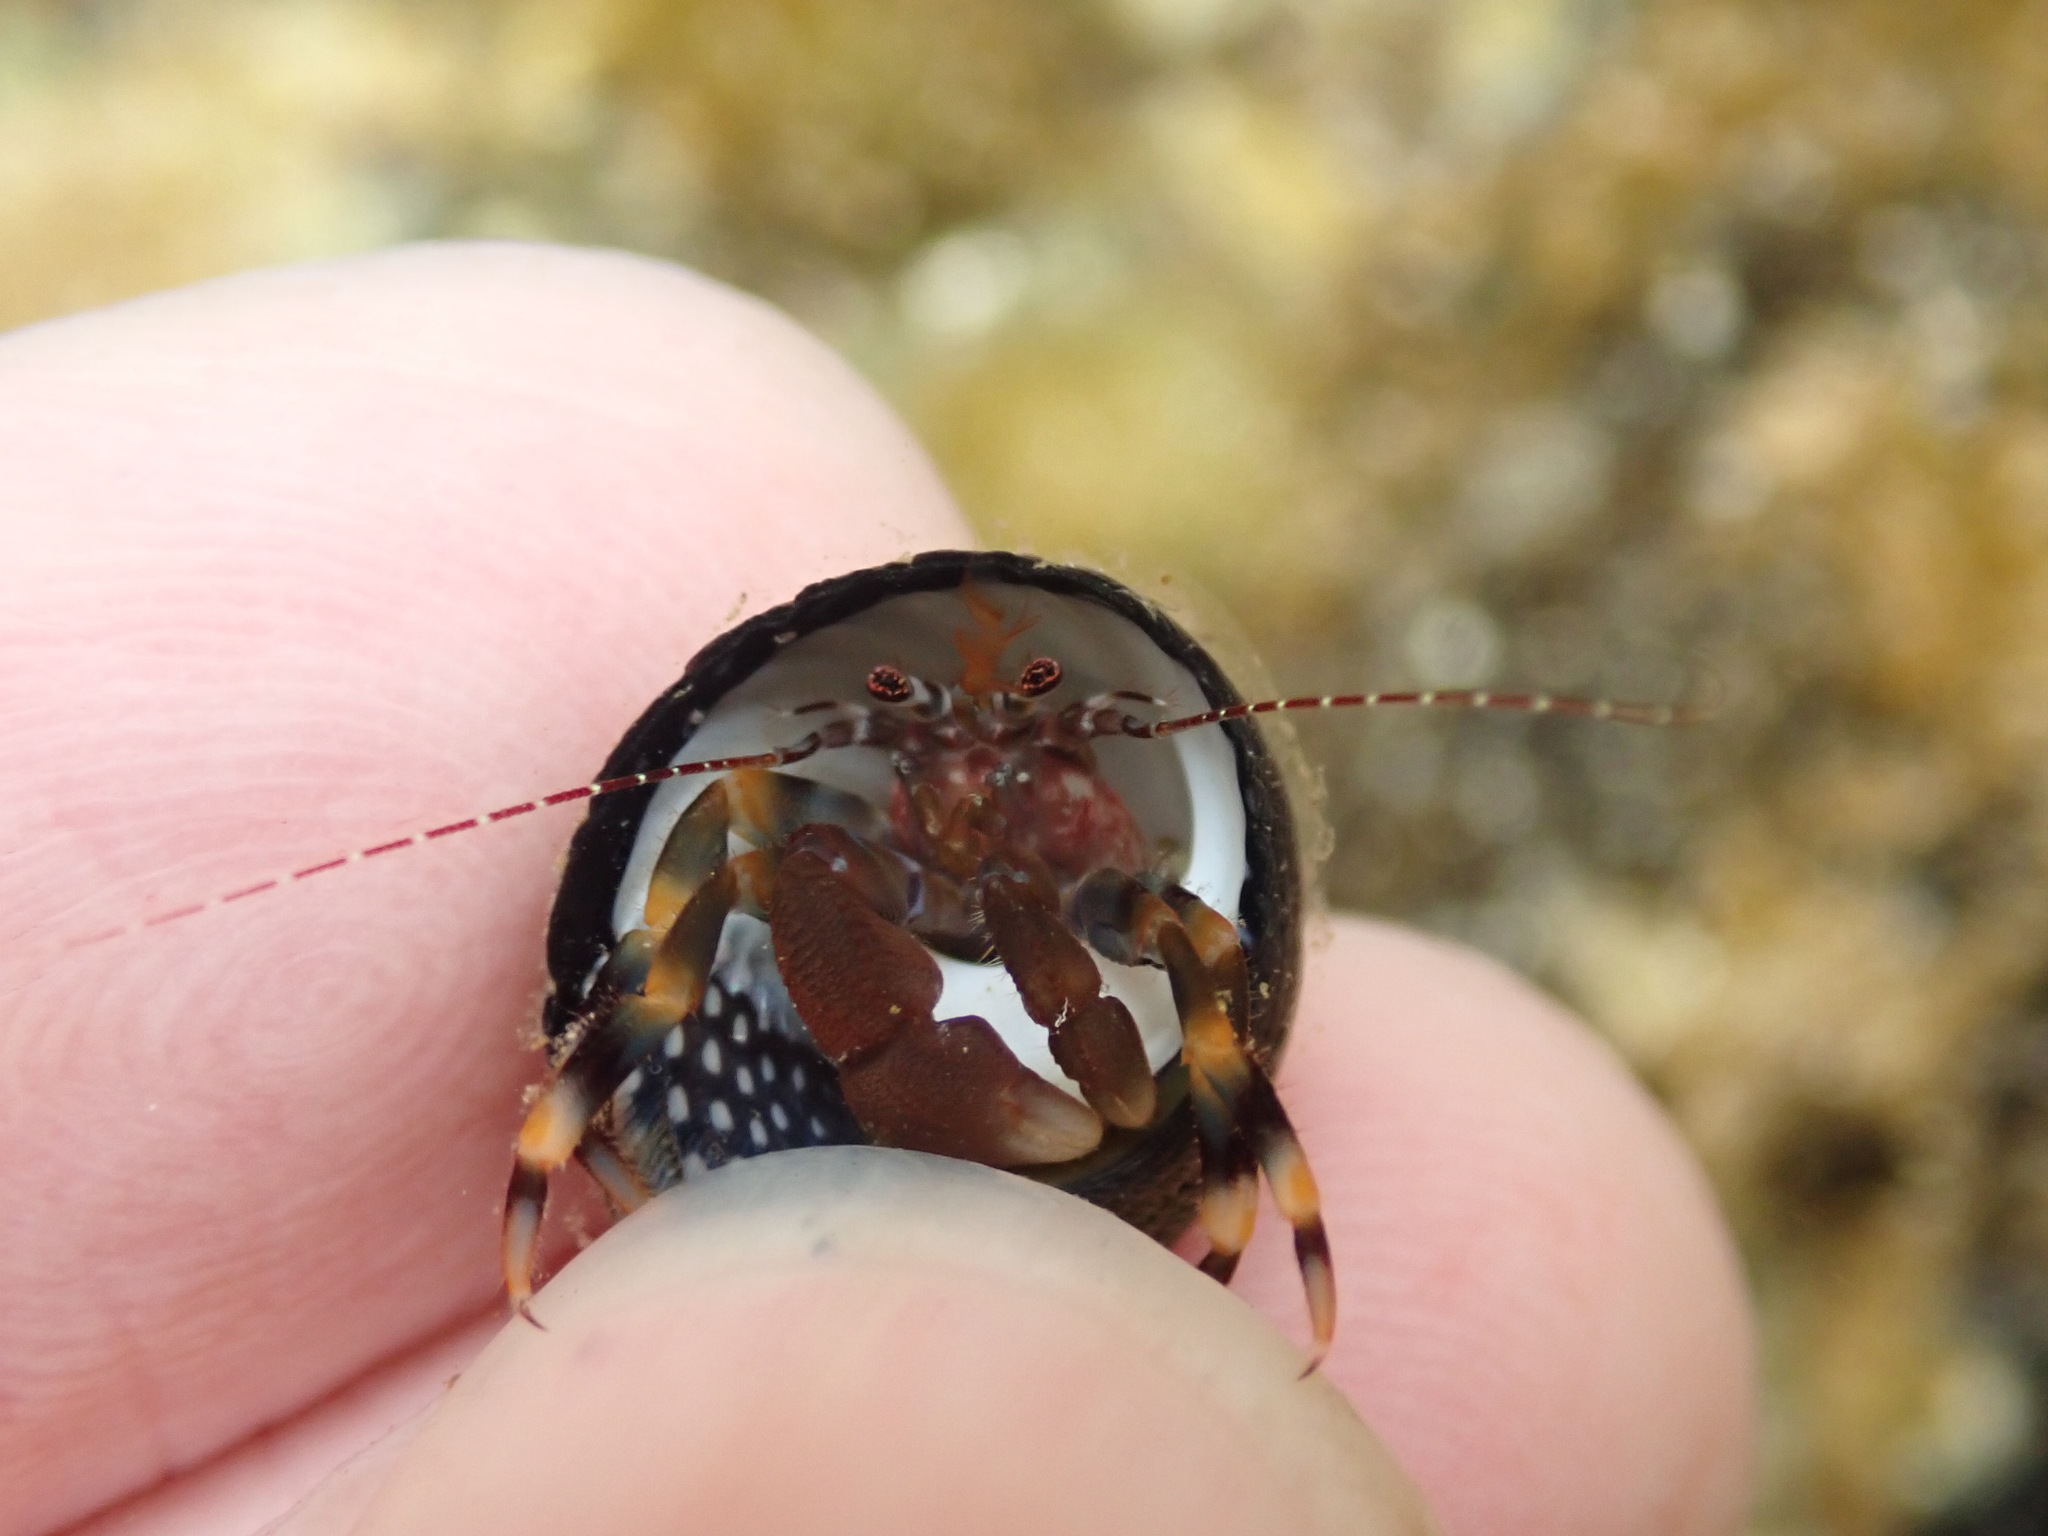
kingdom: Animalia
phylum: Arthropoda
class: Malacostraca
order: Decapoda
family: Paguridae
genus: Pagurixus
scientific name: Pagurixus hectori
